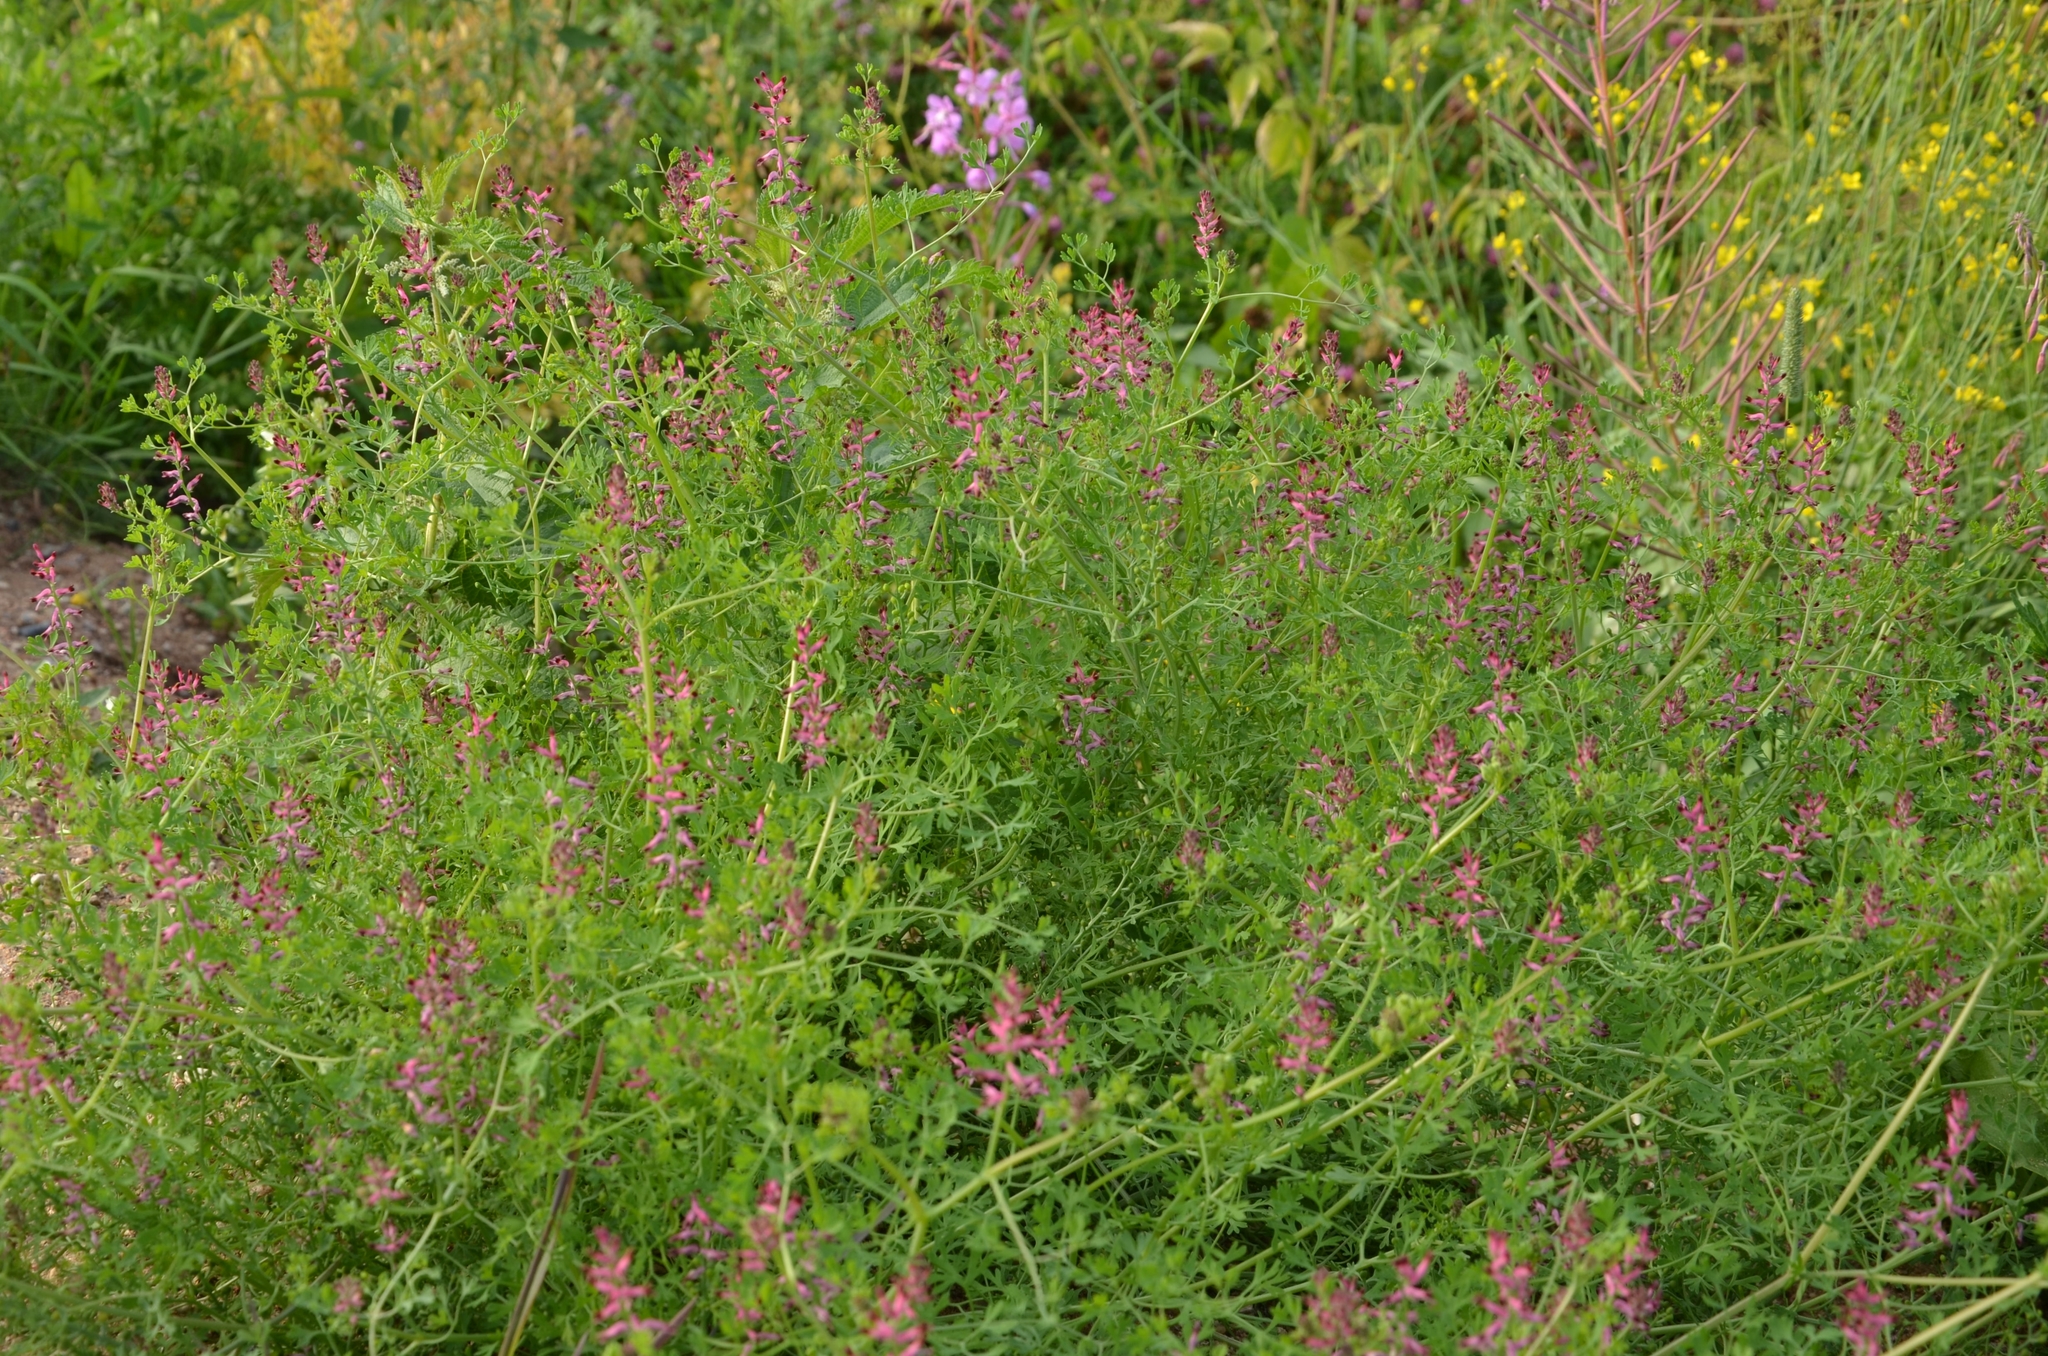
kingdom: Plantae
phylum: Tracheophyta
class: Magnoliopsida
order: Ranunculales
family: Papaveraceae
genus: Fumaria
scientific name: Fumaria officinalis
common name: Common fumitory
